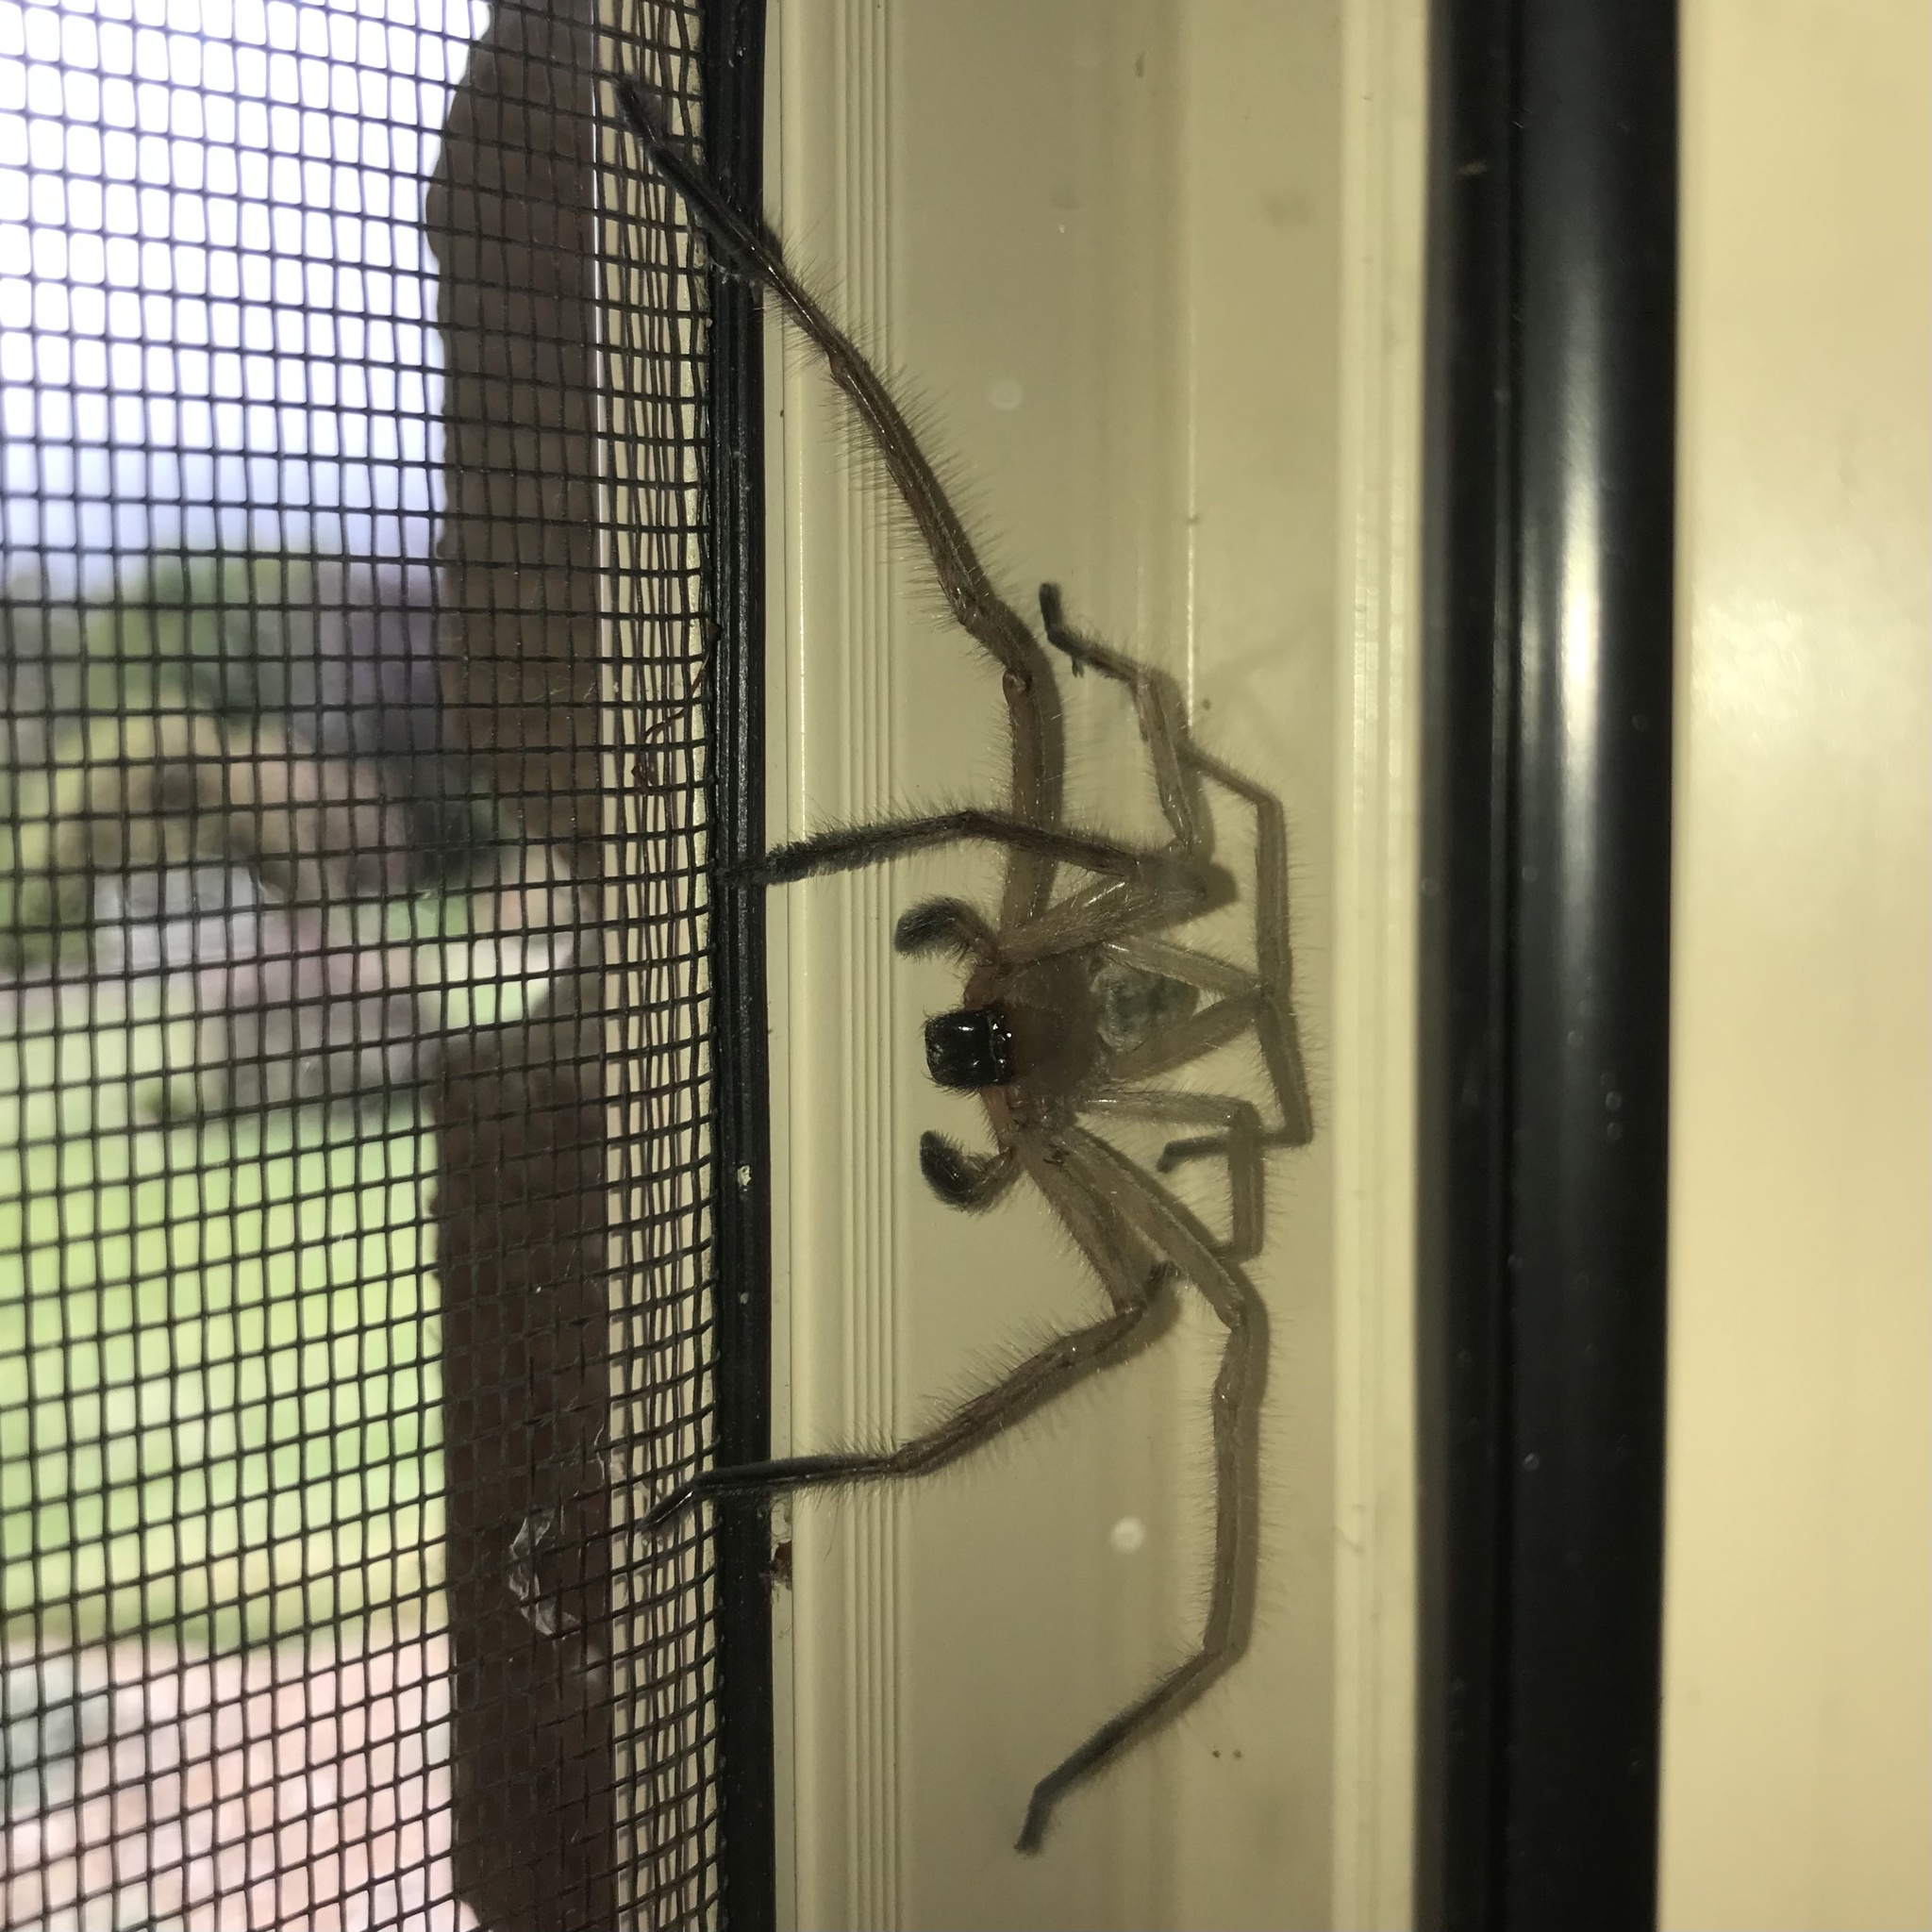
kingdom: Animalia
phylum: Arthropoda
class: Arachnida
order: Araneae
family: Sparassidae
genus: Delena
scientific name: Delena cancerides
